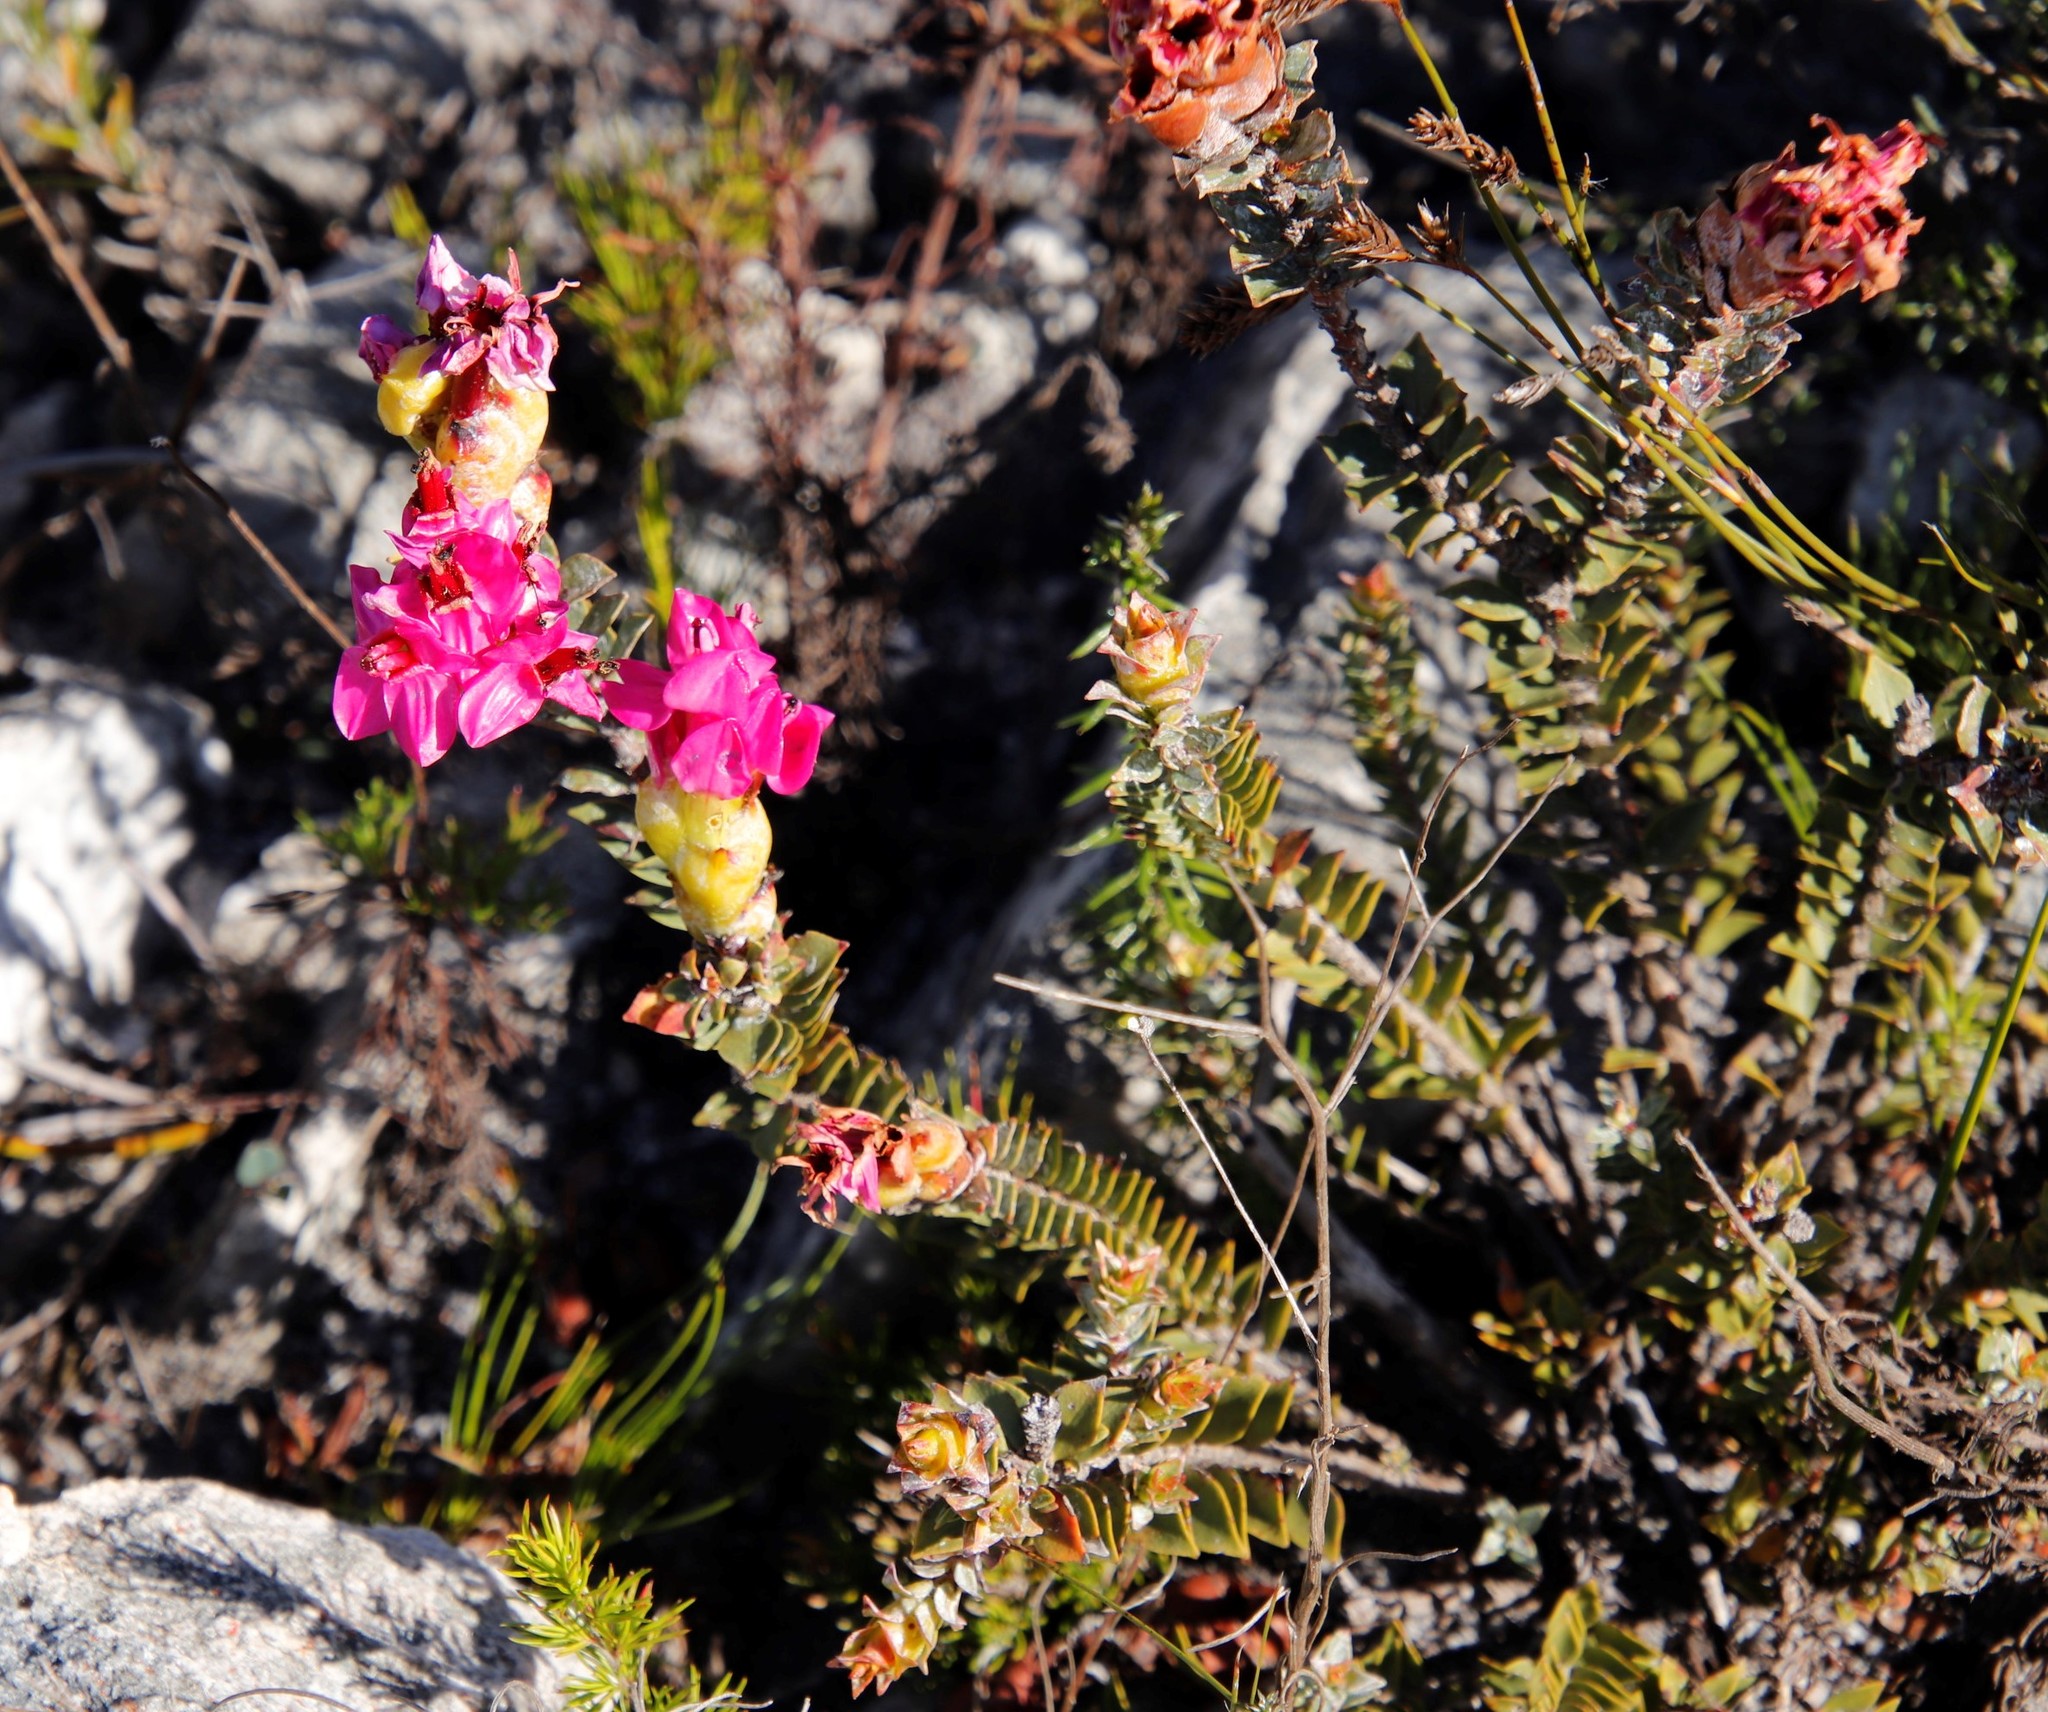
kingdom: Plantae
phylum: Tracheophyta
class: Magnoliopsida
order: Myrtales
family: Penaeaceae
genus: Saltera
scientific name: Saltera sarcocolla
